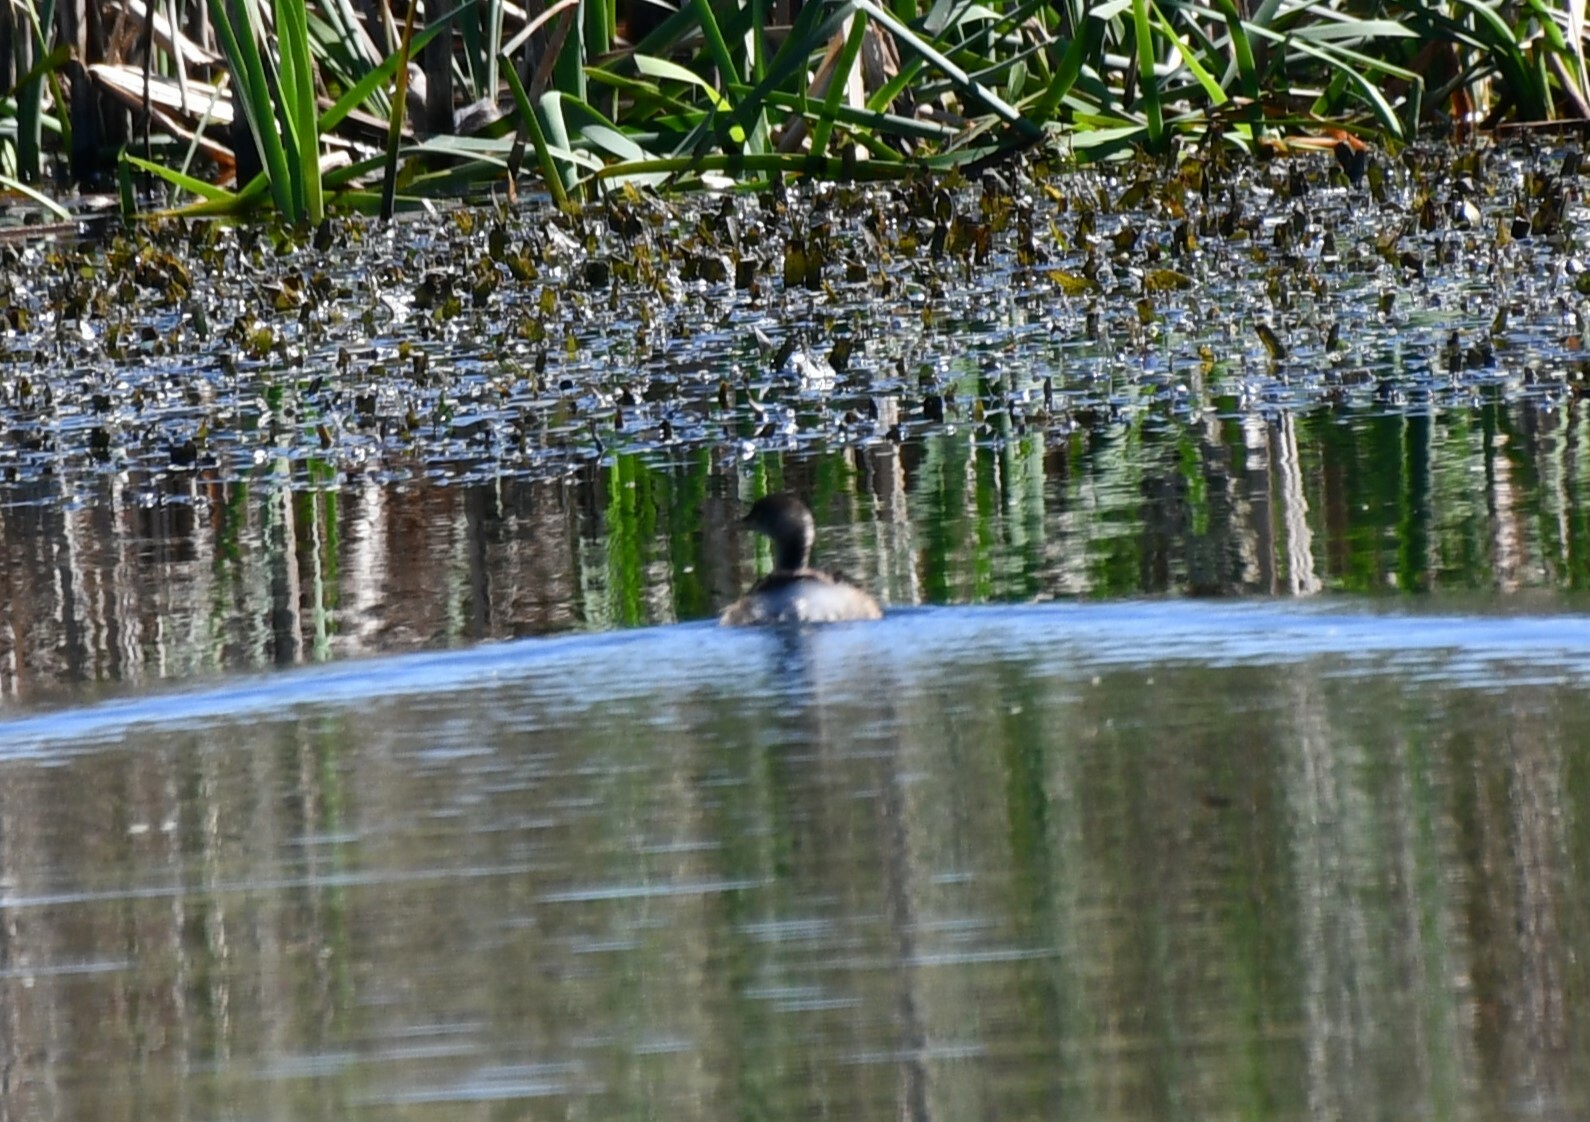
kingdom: Animalia
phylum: Chordata
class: Aves
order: Podicipediformes
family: Podicipedidae
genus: Tachybaptus
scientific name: Tachybaptus novaehollandiae
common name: Australasian grebe
